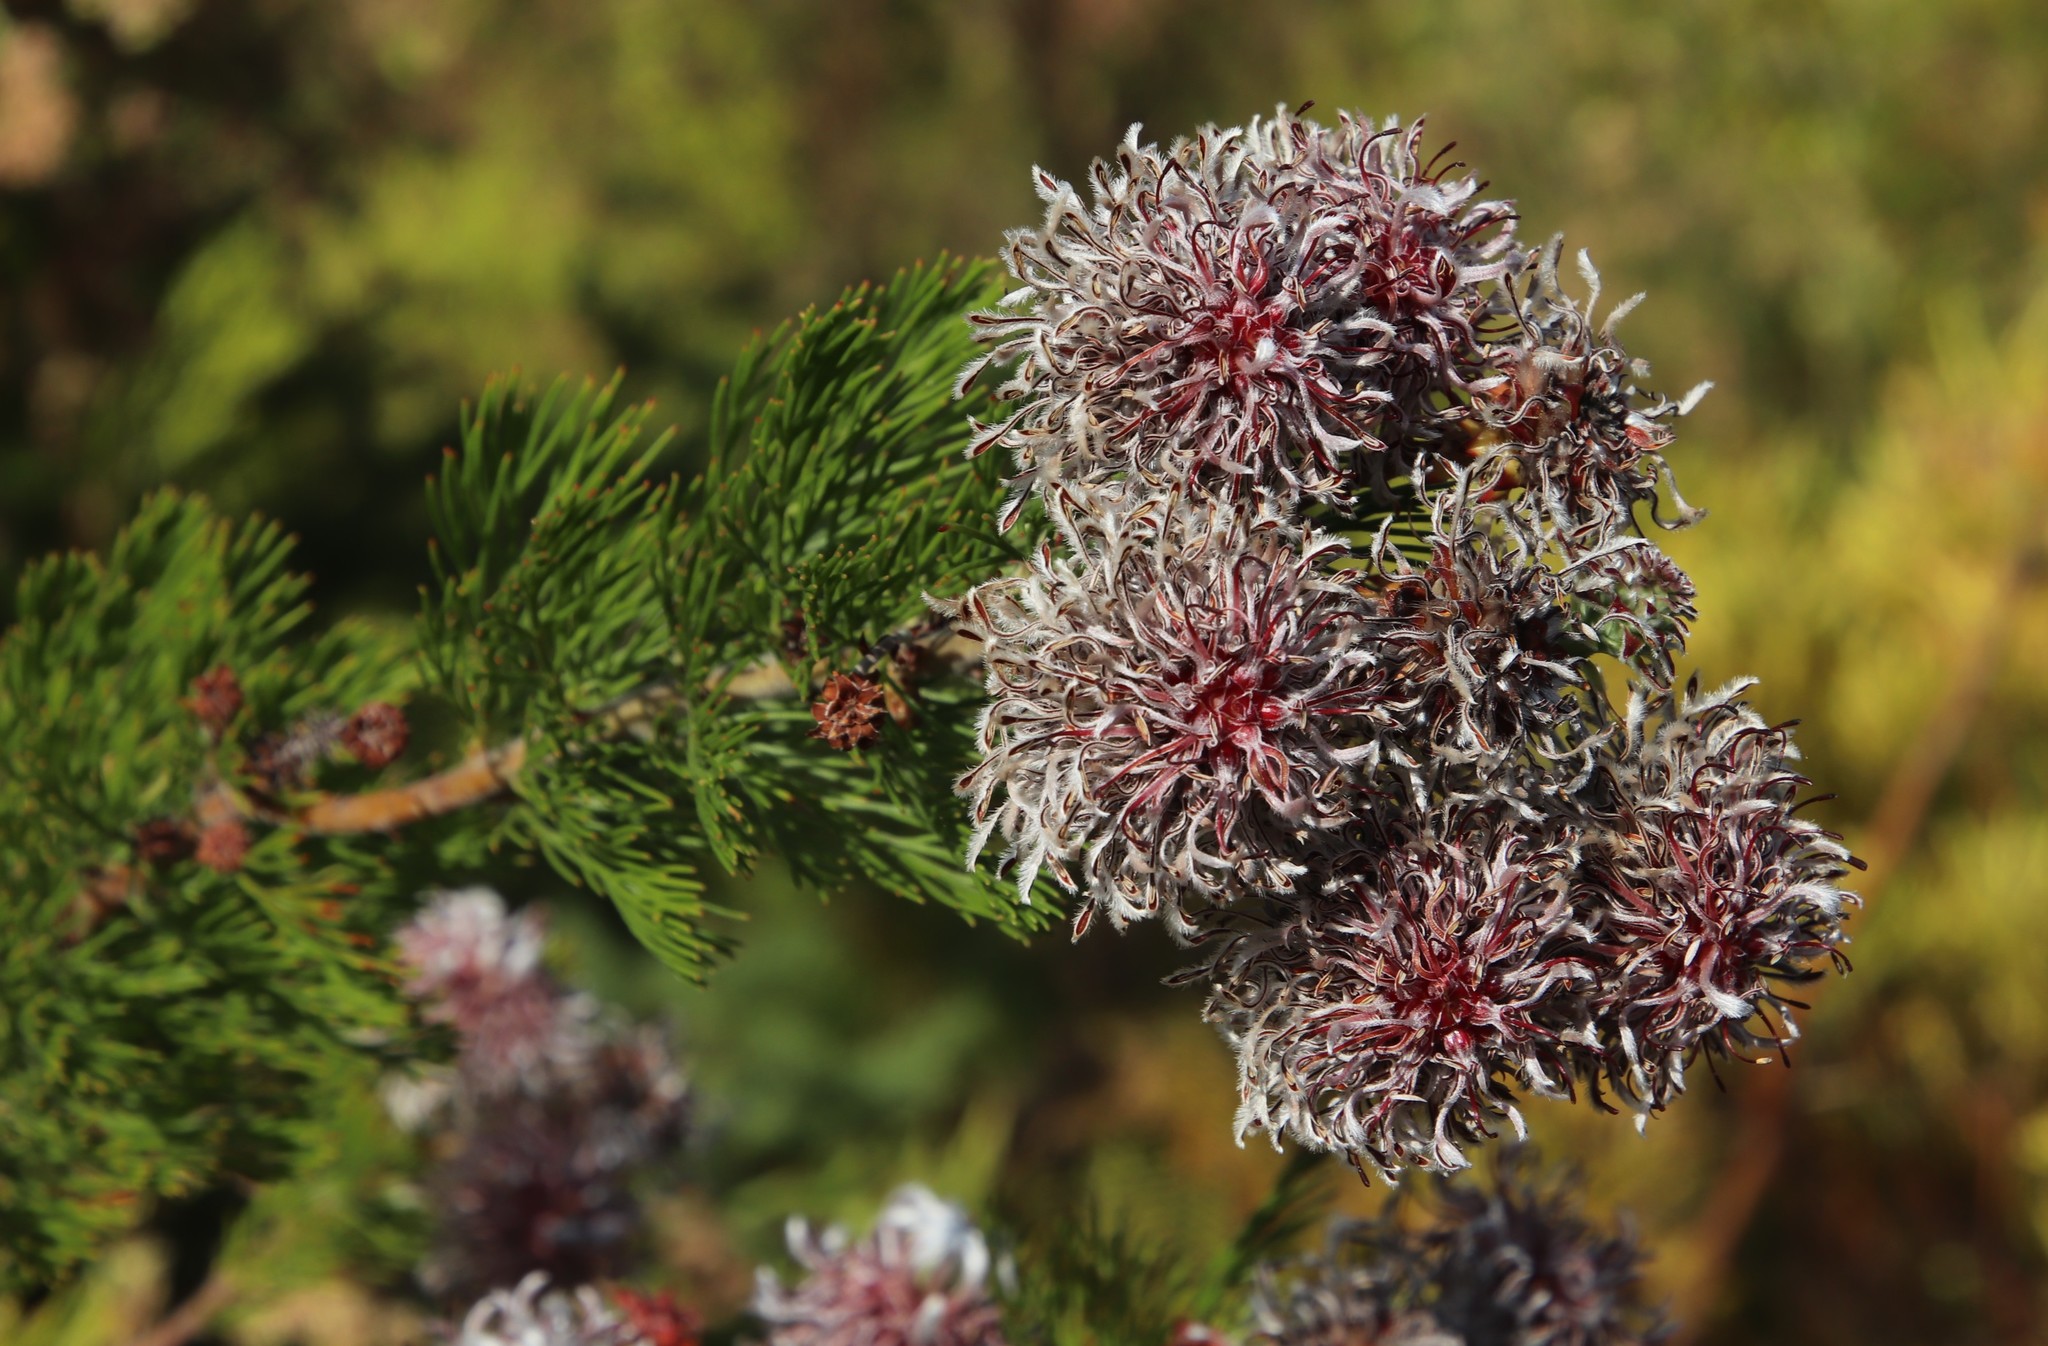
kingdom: Plantae
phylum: Tracheophyta
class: Magnoliopsida
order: Proteales
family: Proteaceae
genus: Serruria
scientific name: Serruria acrocarpa
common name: Common rootstock spiderhead
